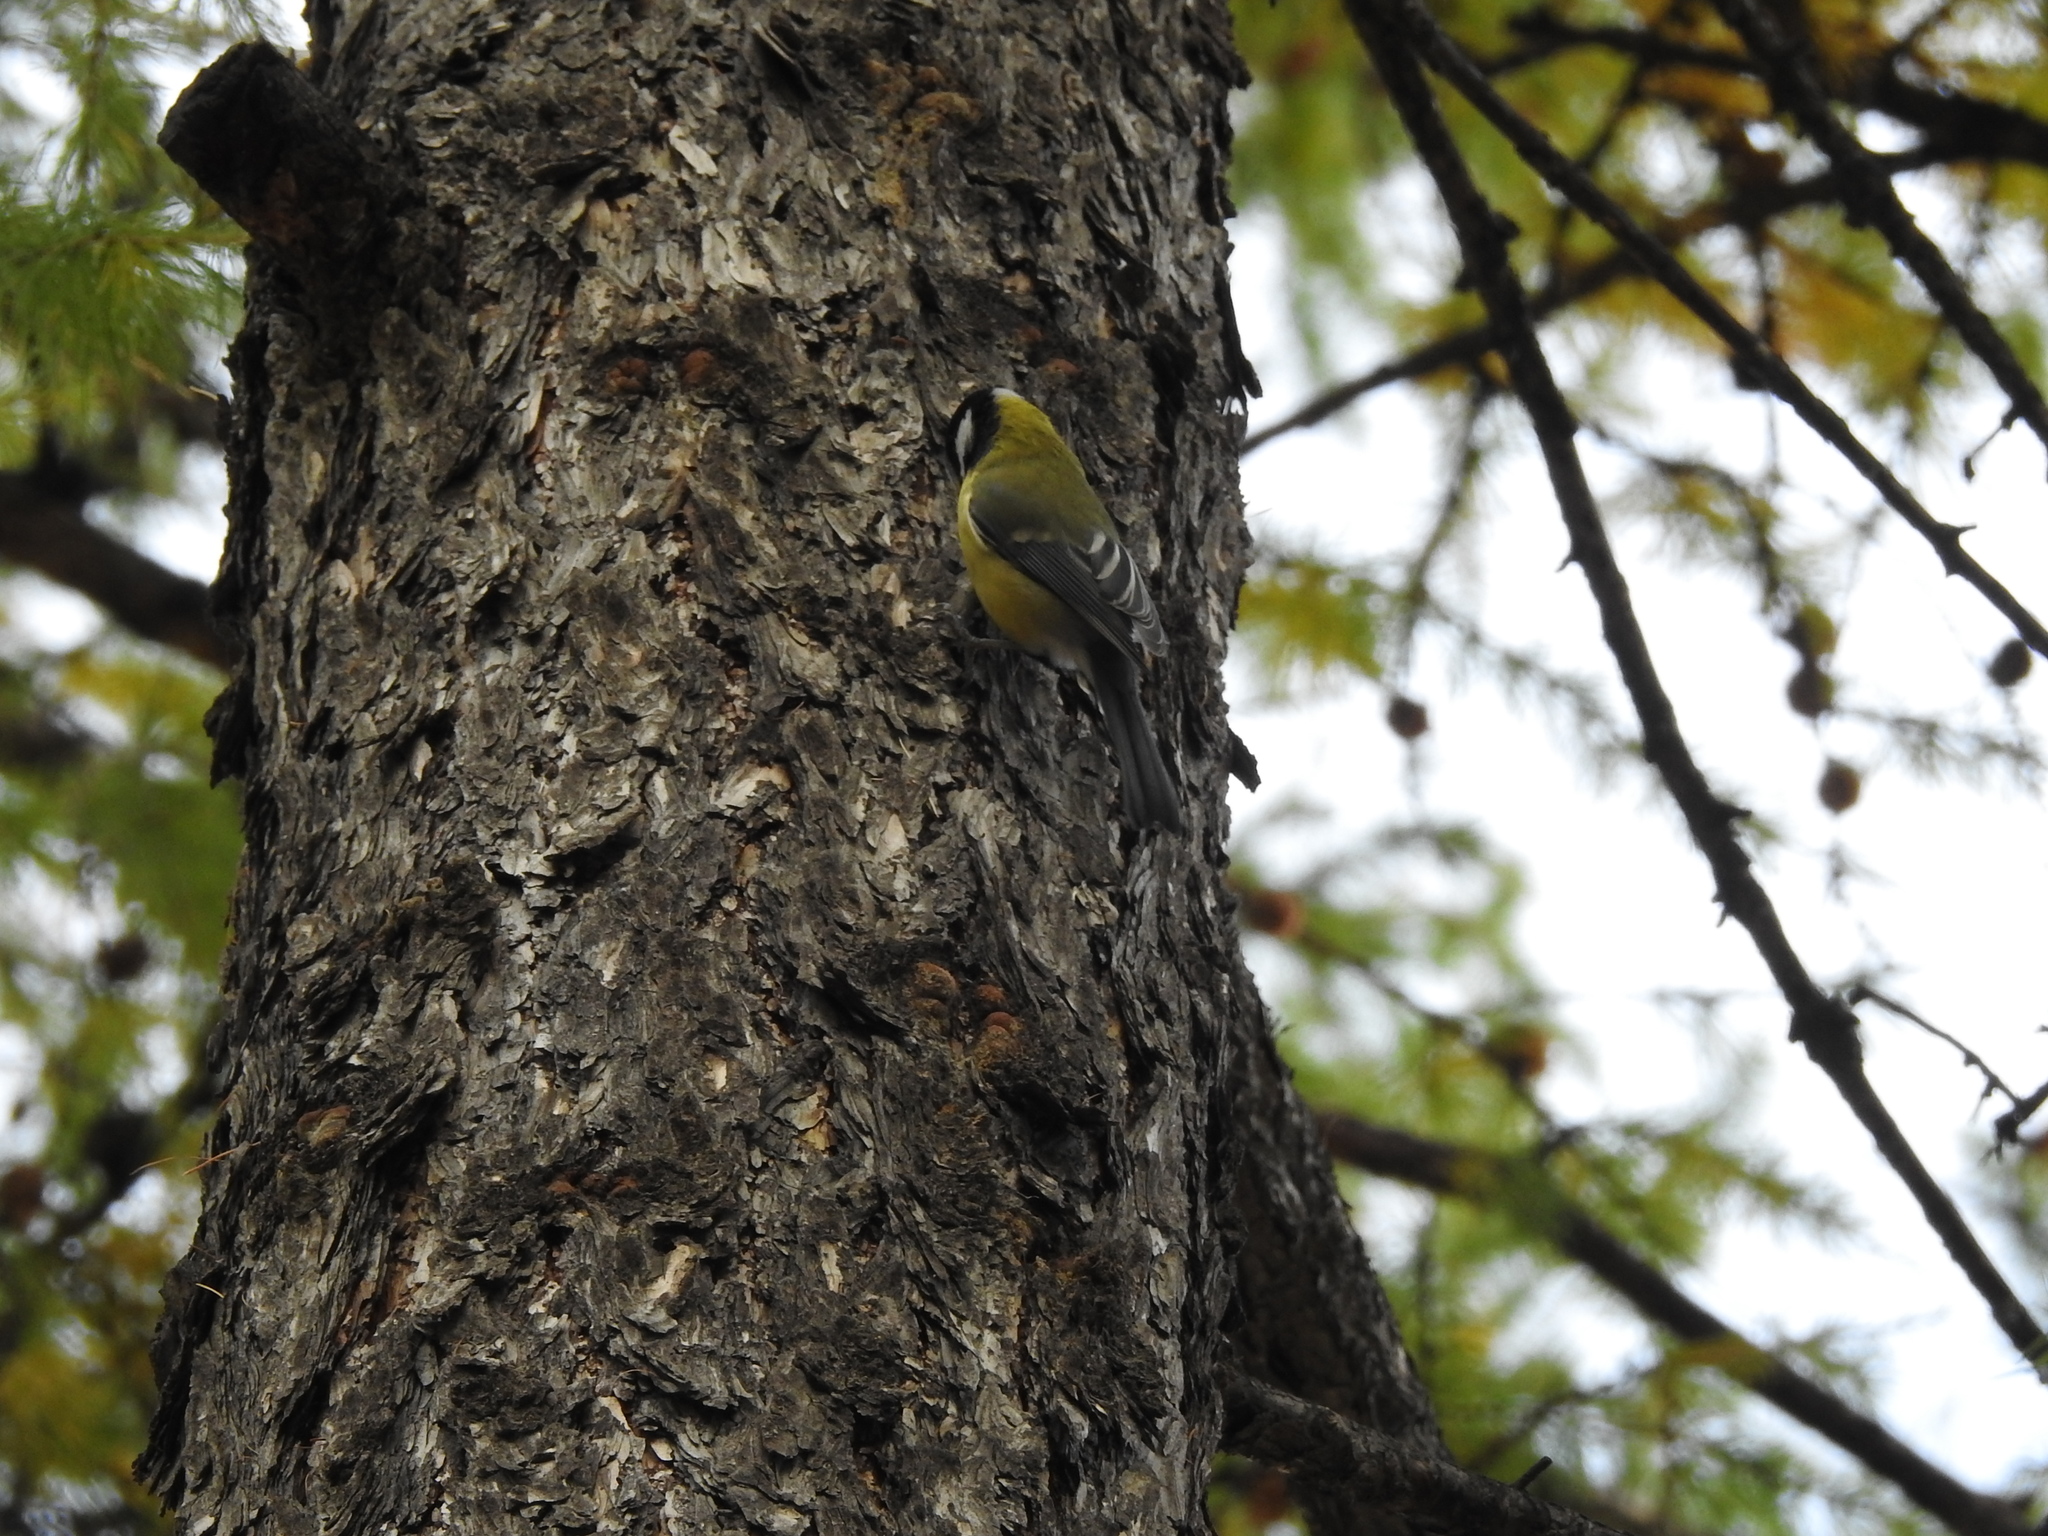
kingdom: Animalia
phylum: Chordata
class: Aves
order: Passeriformes
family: Paridae
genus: Parus
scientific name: Parus major
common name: Great tit
